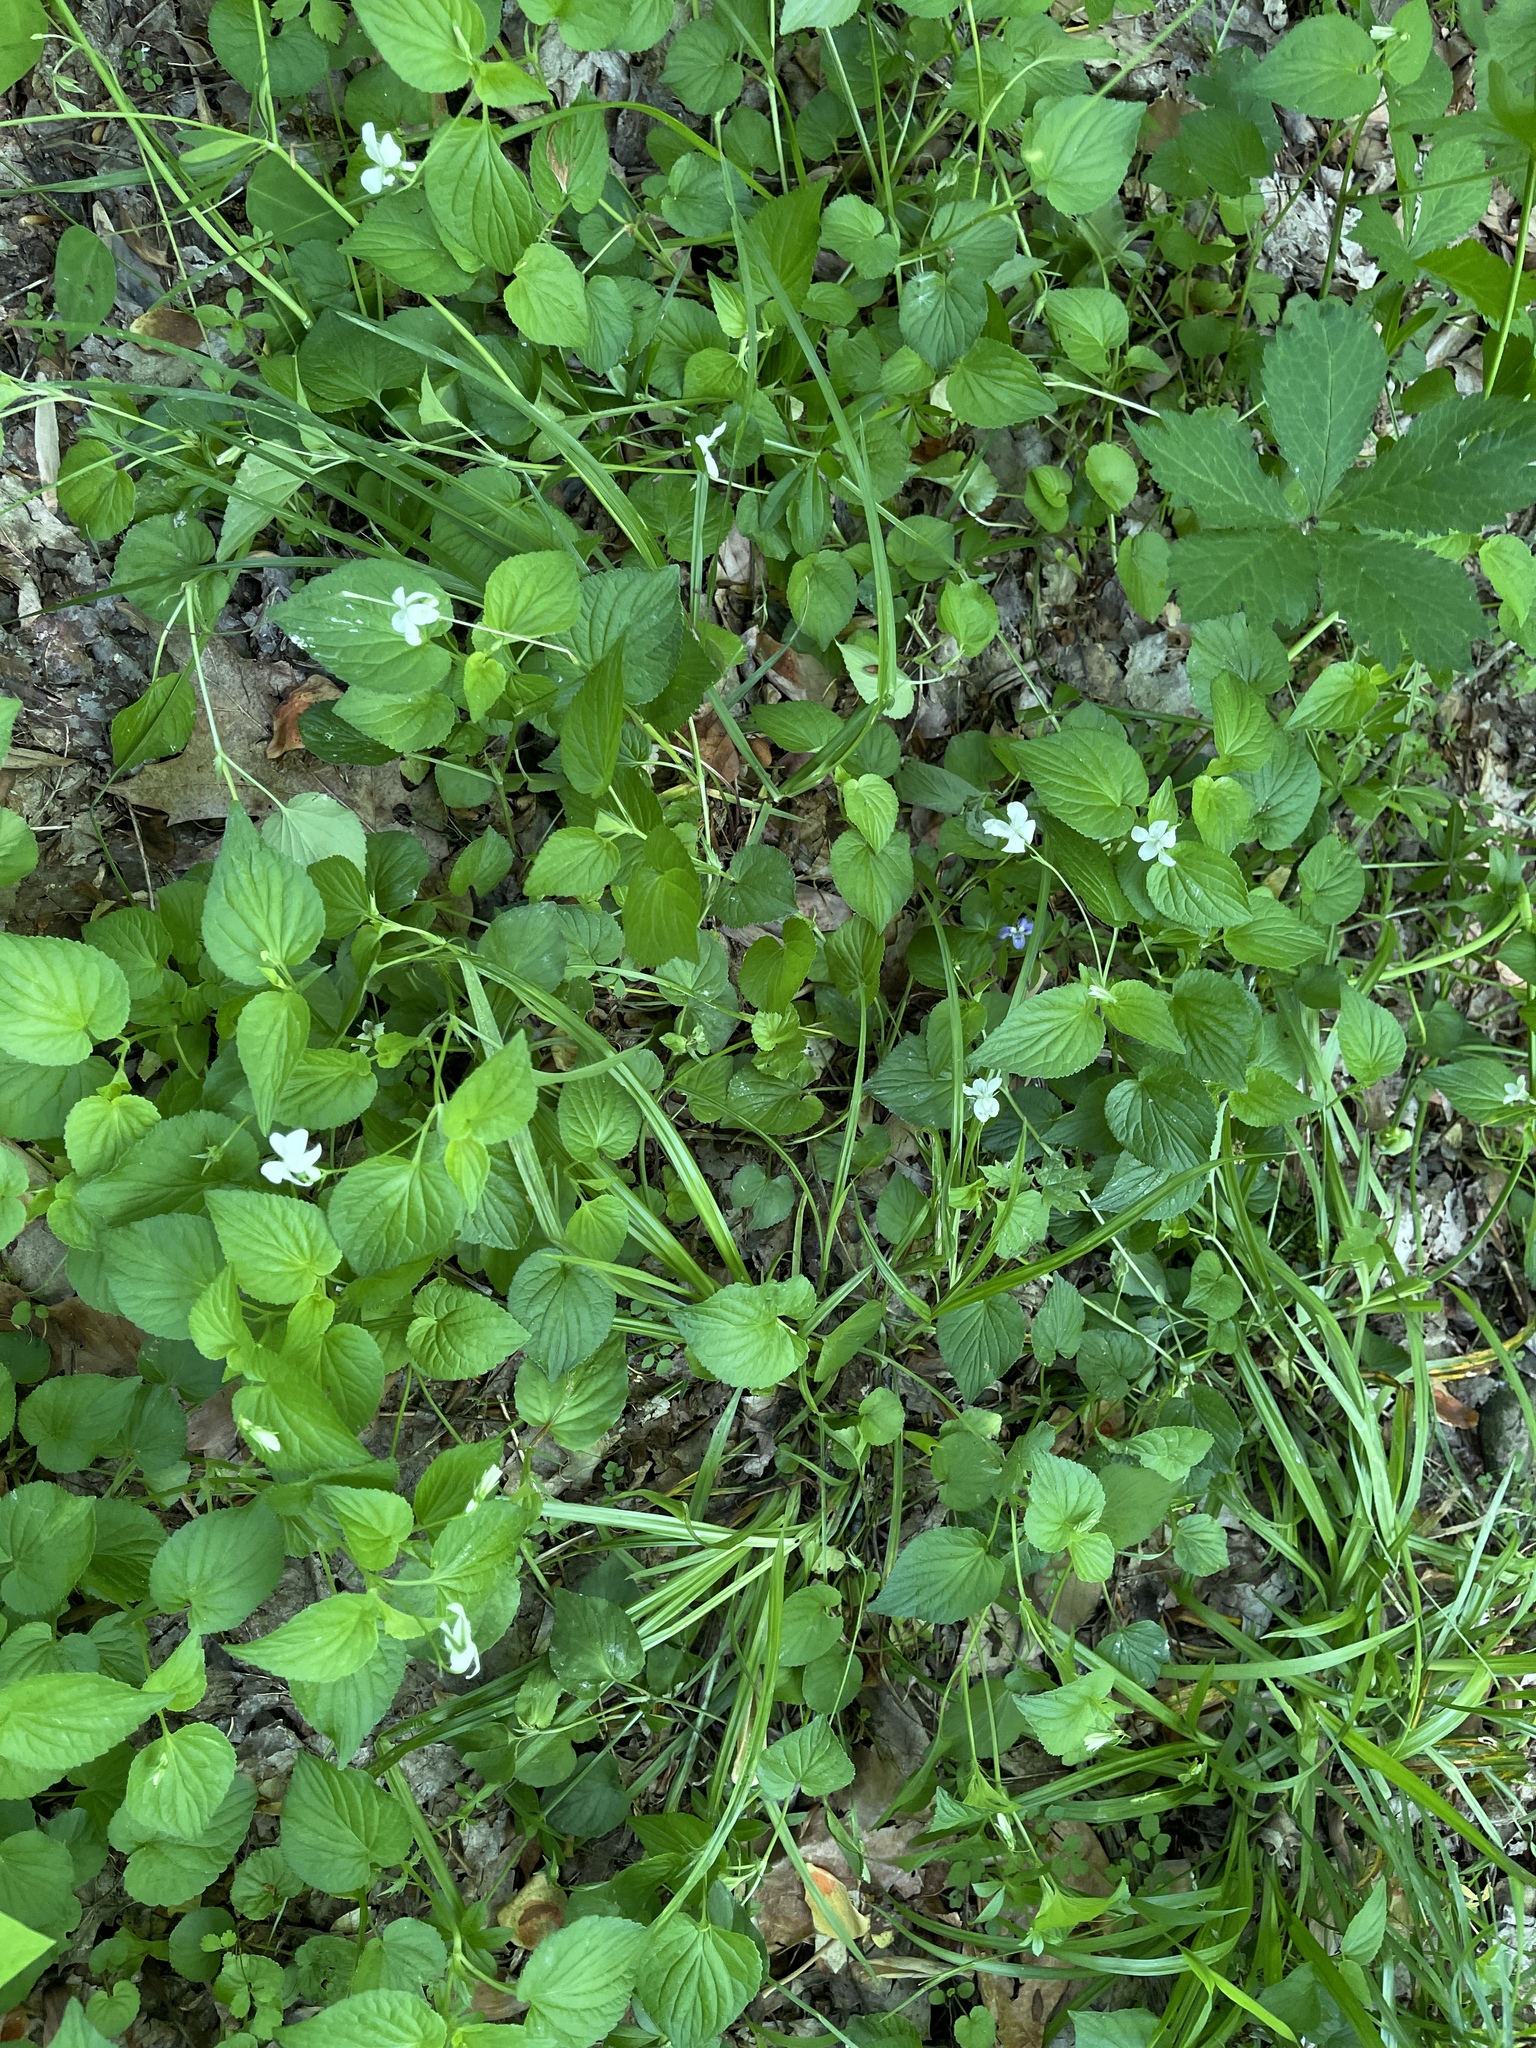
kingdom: Plantae
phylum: Tracheophyta
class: Magnoliopsida
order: Malpighiales
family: Violaceae
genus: Viola
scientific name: Viola striata
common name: Cream violet
